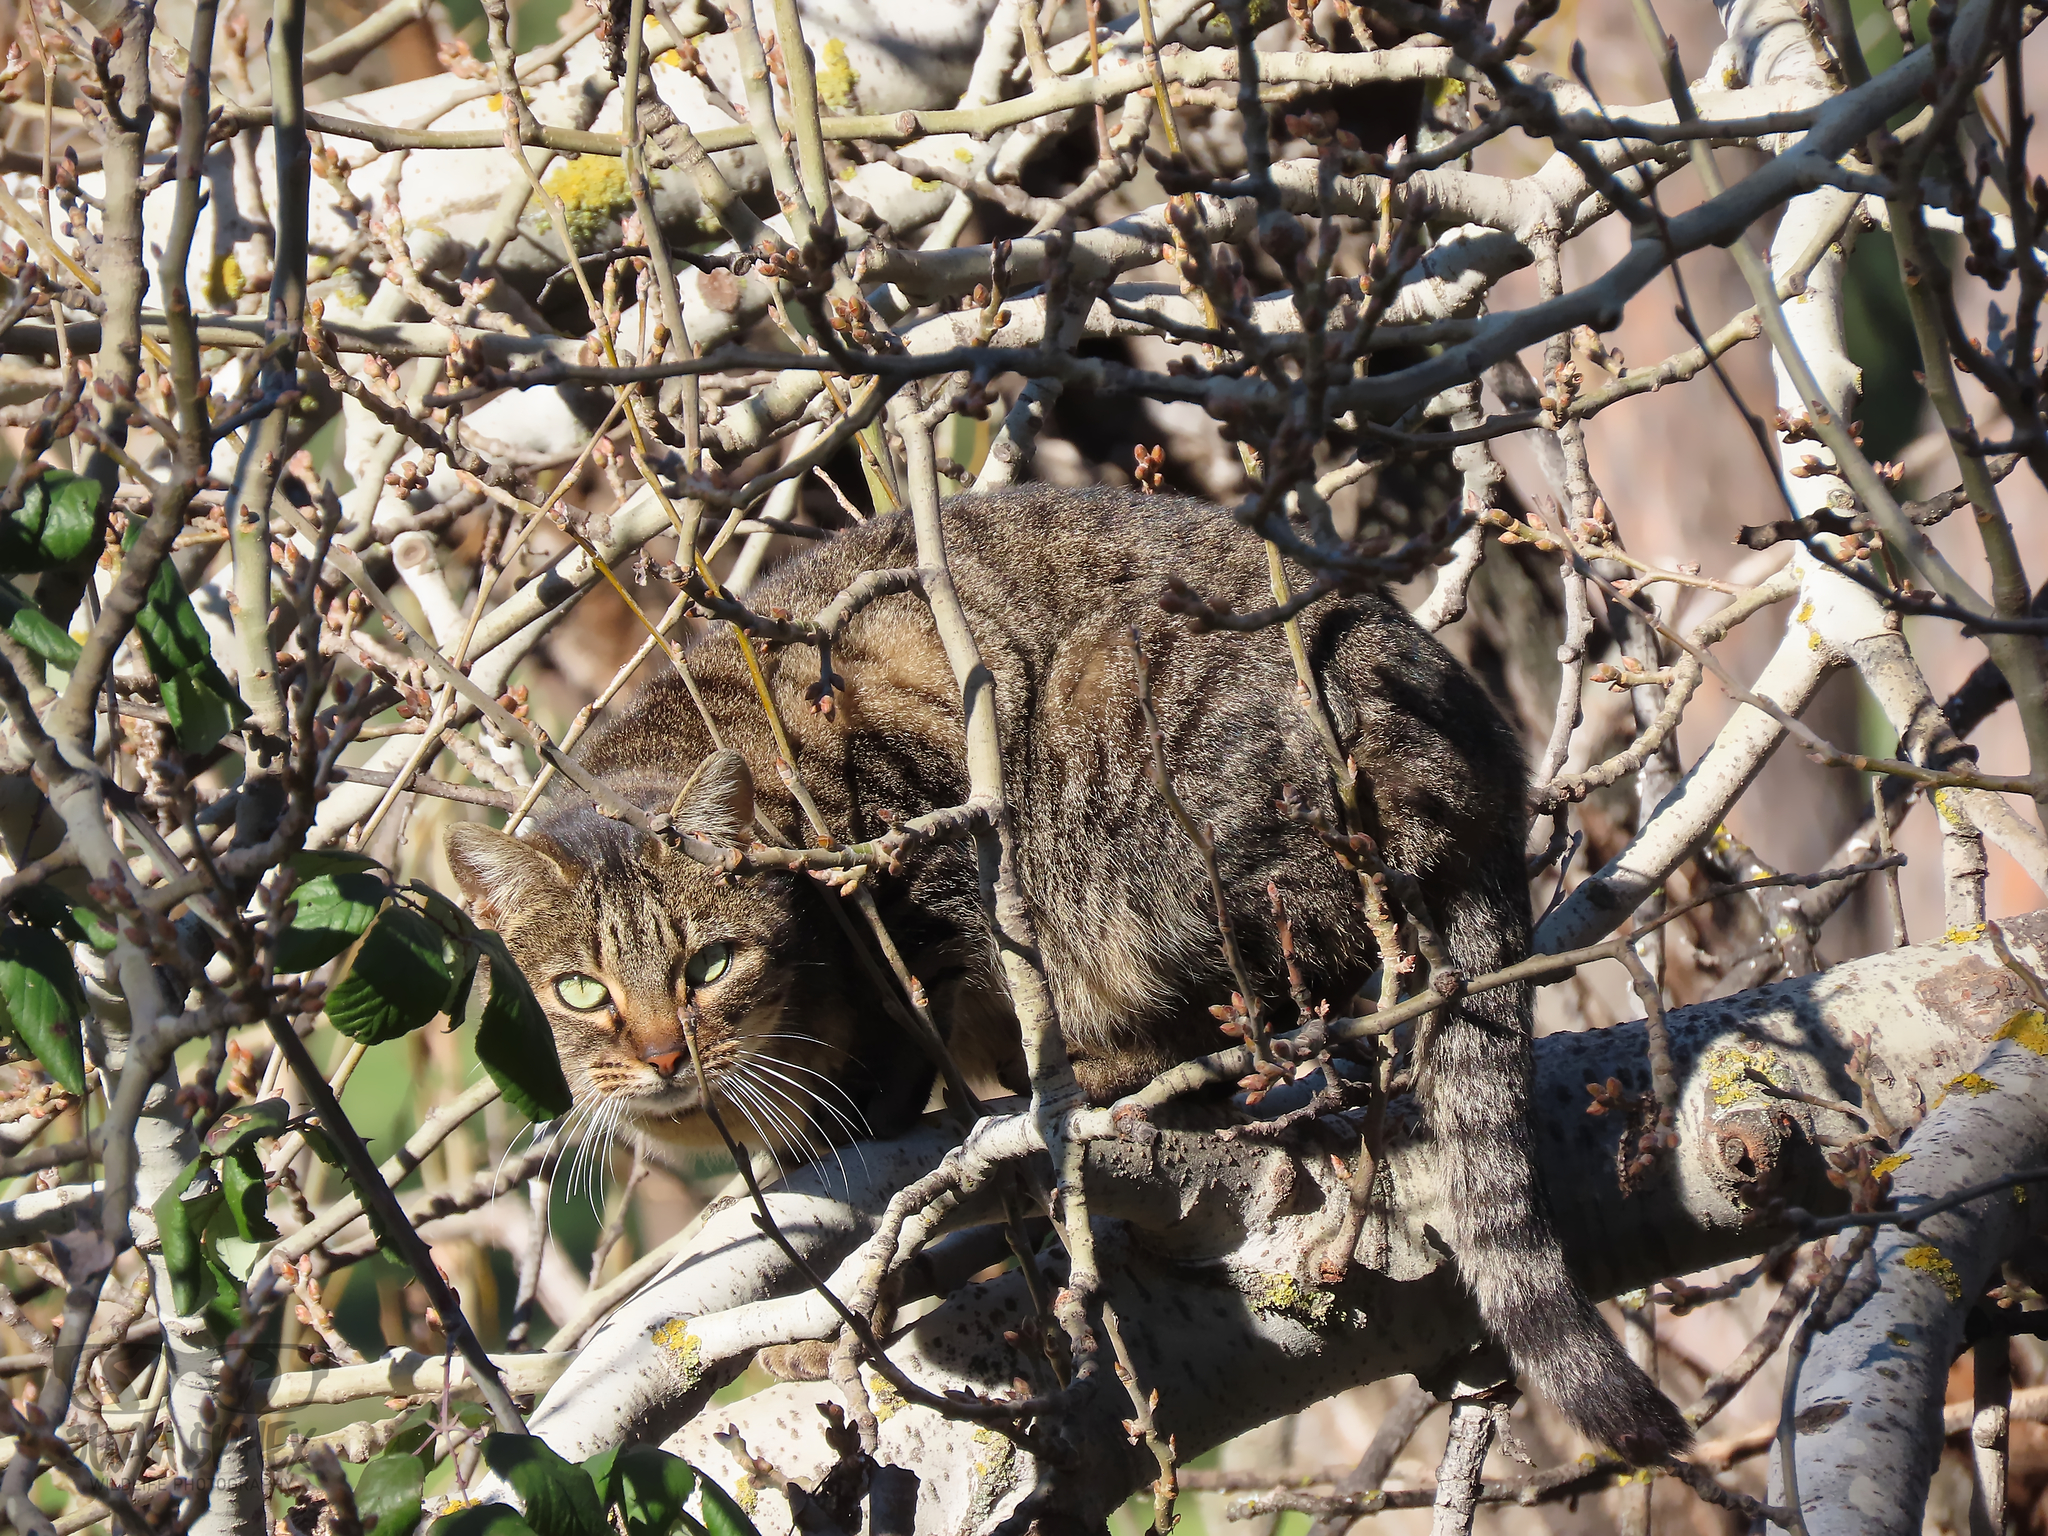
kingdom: Animalia
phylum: Chordata
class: Mammalia
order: Carnivora
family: Felidae
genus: Felis
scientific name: Felis catus
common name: Domestic cat
